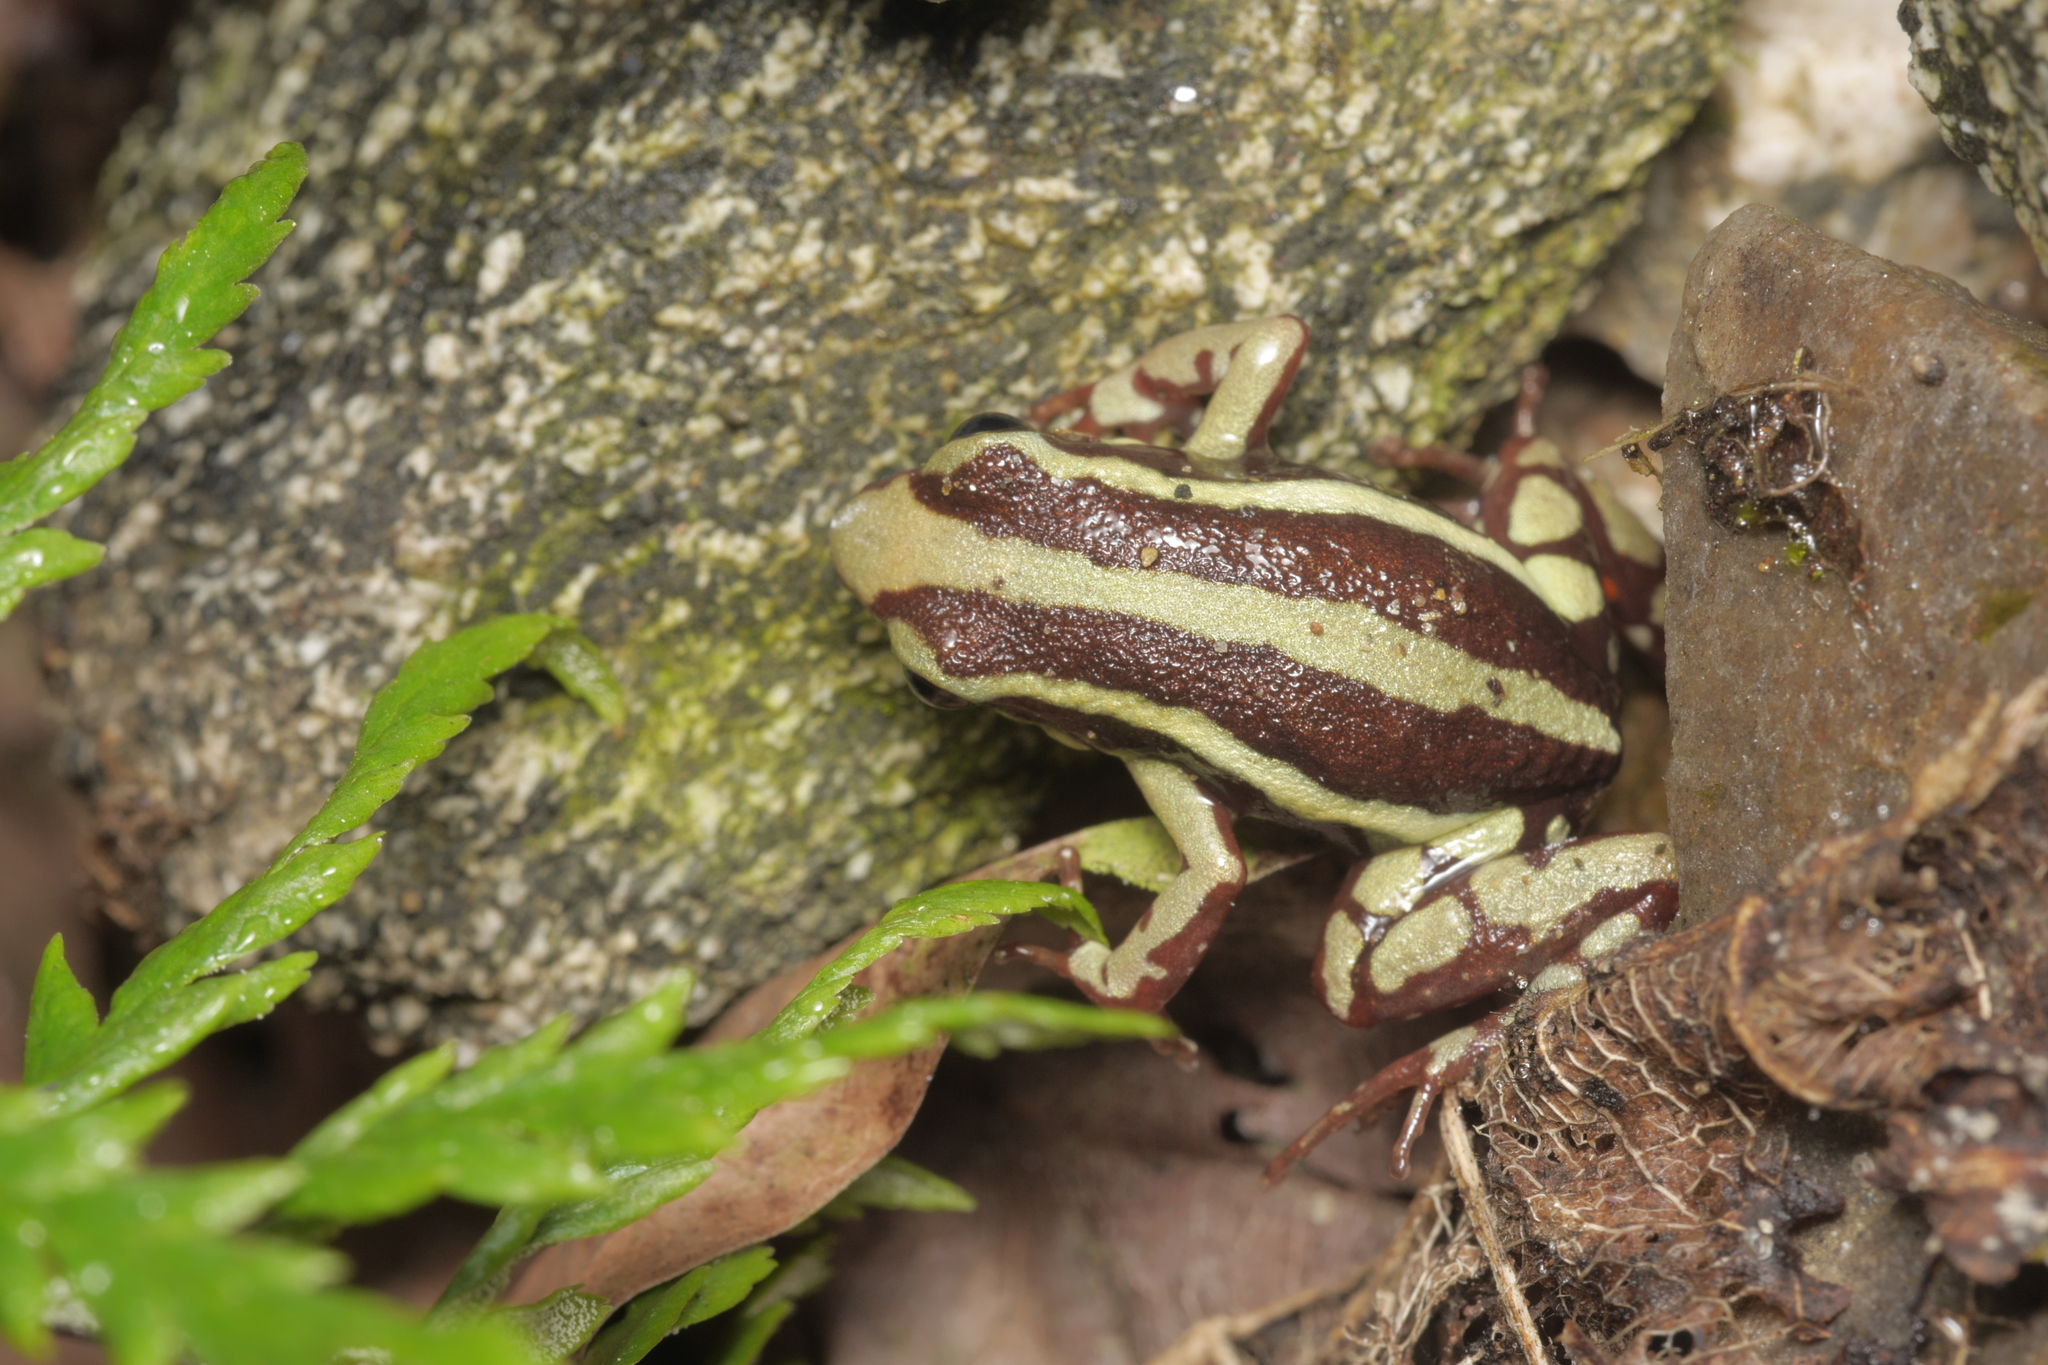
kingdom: Animalia
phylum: Chordata
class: Amphibia
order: Anura
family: Dendrobatidae
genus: Epipedobates
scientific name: Epipedobates anthonyi
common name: Anthony´s poison-arrow frog
